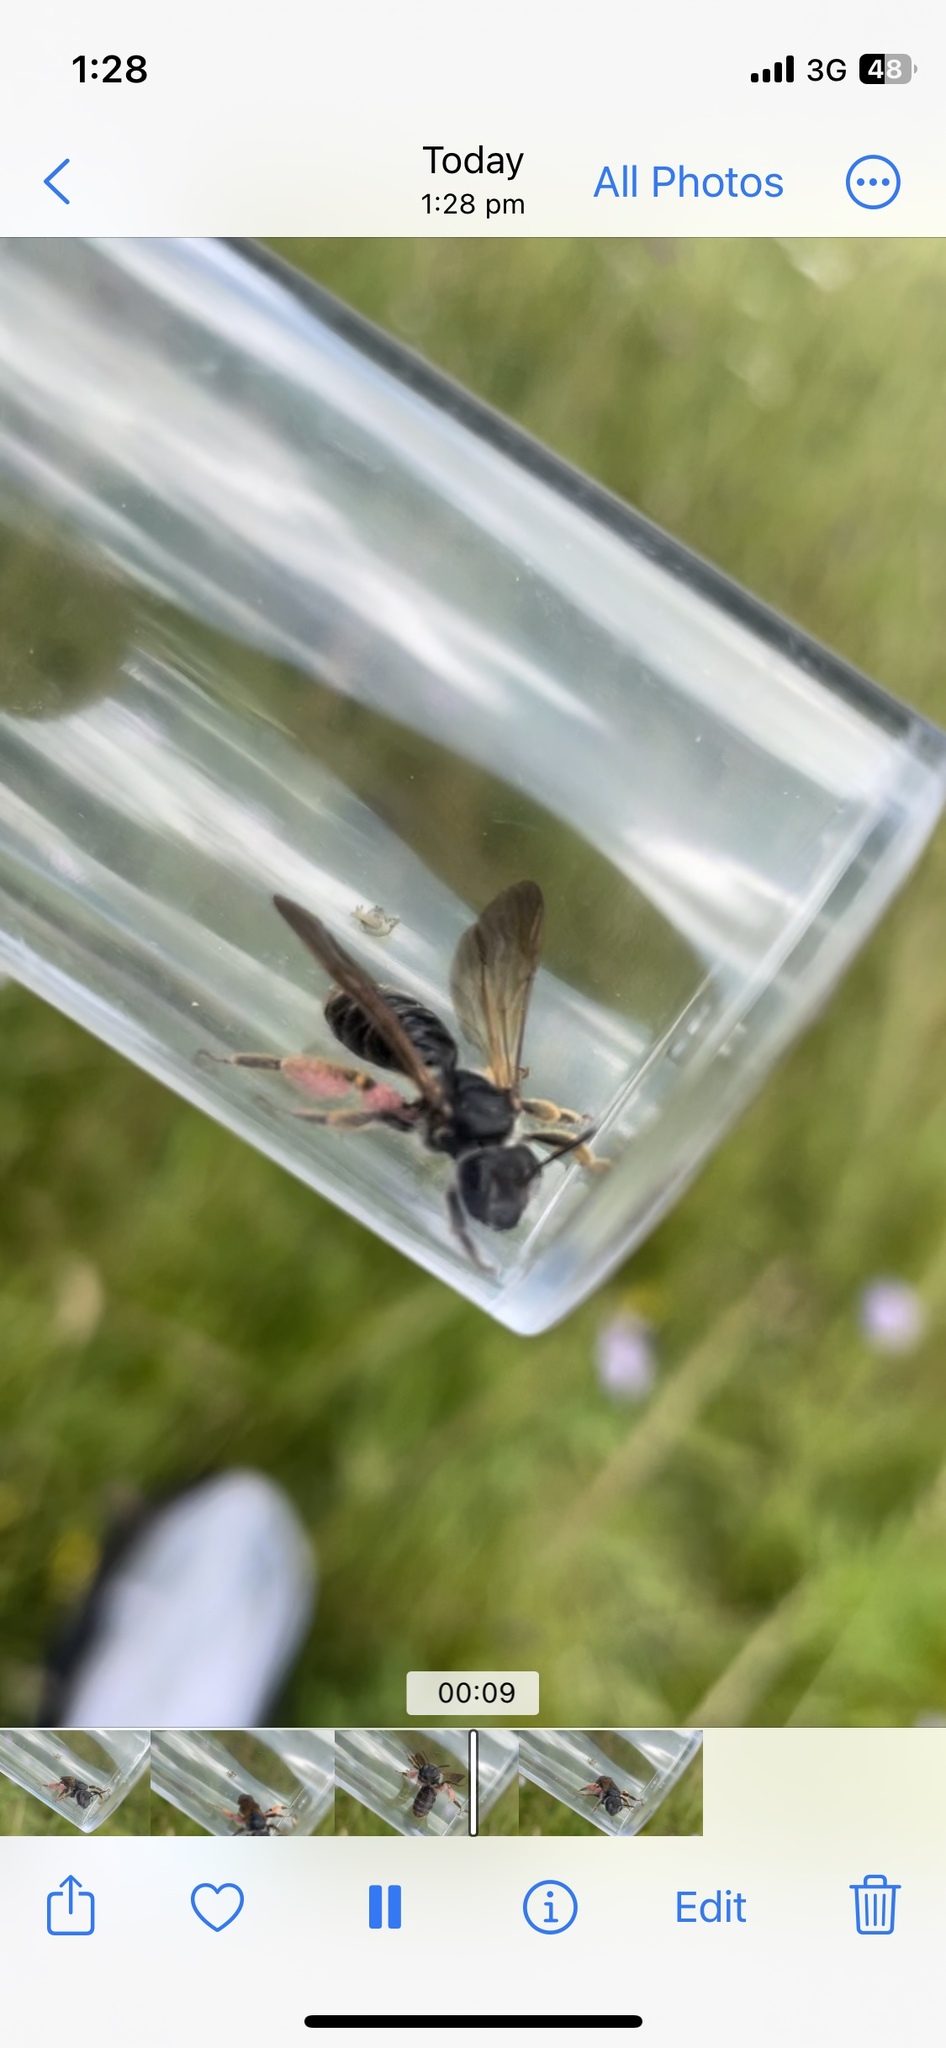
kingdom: Animalia
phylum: Arthropoda
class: Insecta
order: Hymenoptera
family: Andrenidae
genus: Andrena
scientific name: Andrena hattorfiana
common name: Large scabious mining bee
